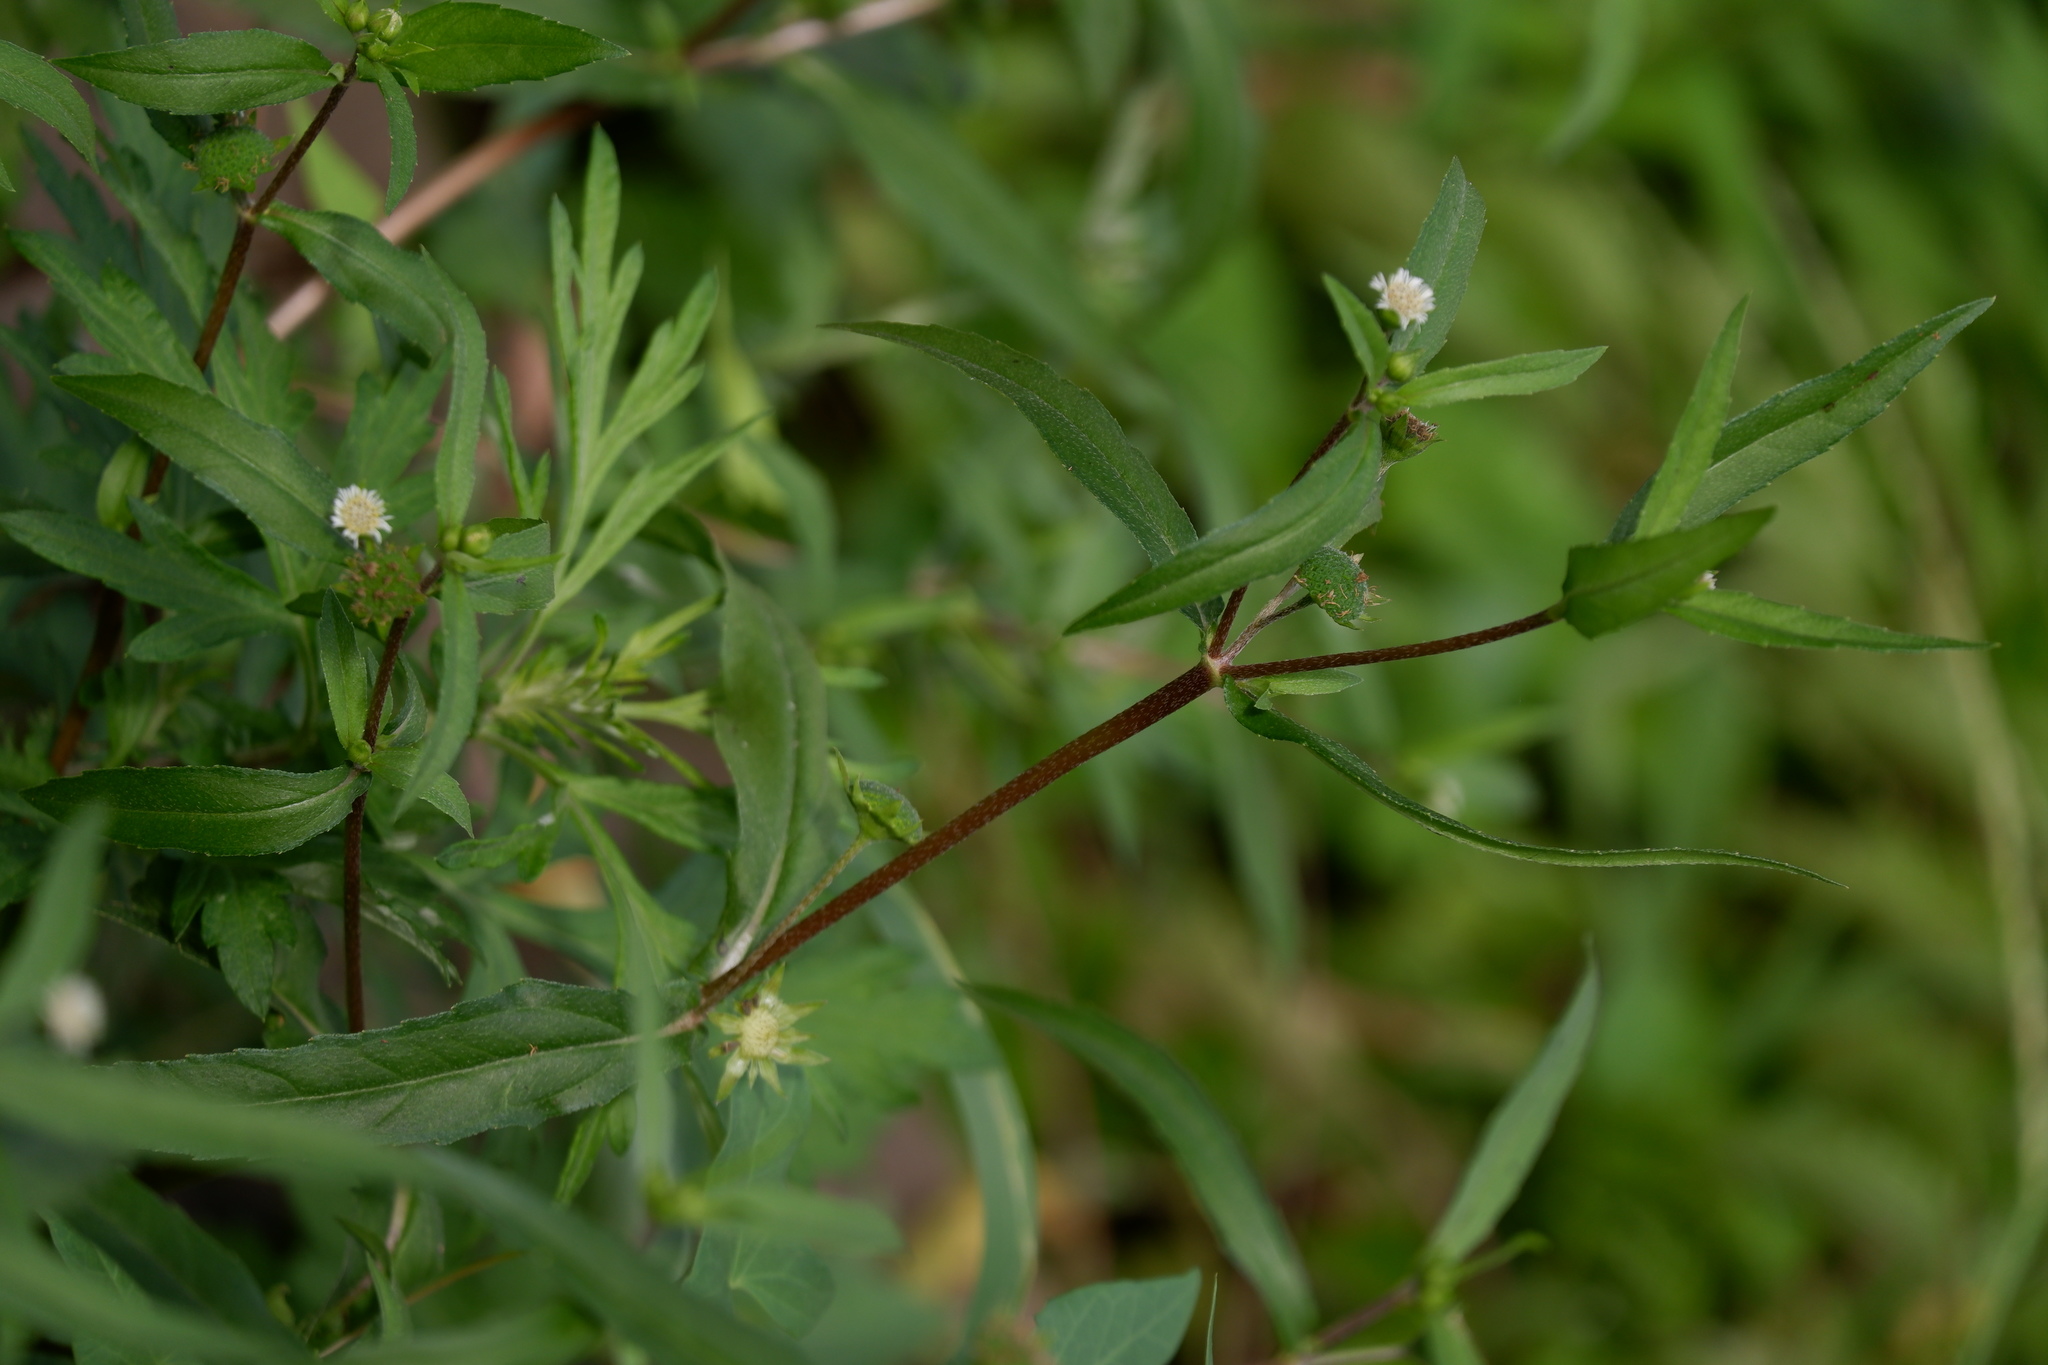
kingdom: Plantae
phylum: Tracheophyta
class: Magnoliopsida
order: Asterales
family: Asteraceae
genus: Eclipta
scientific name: Eclipta prostrata
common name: False daisy
